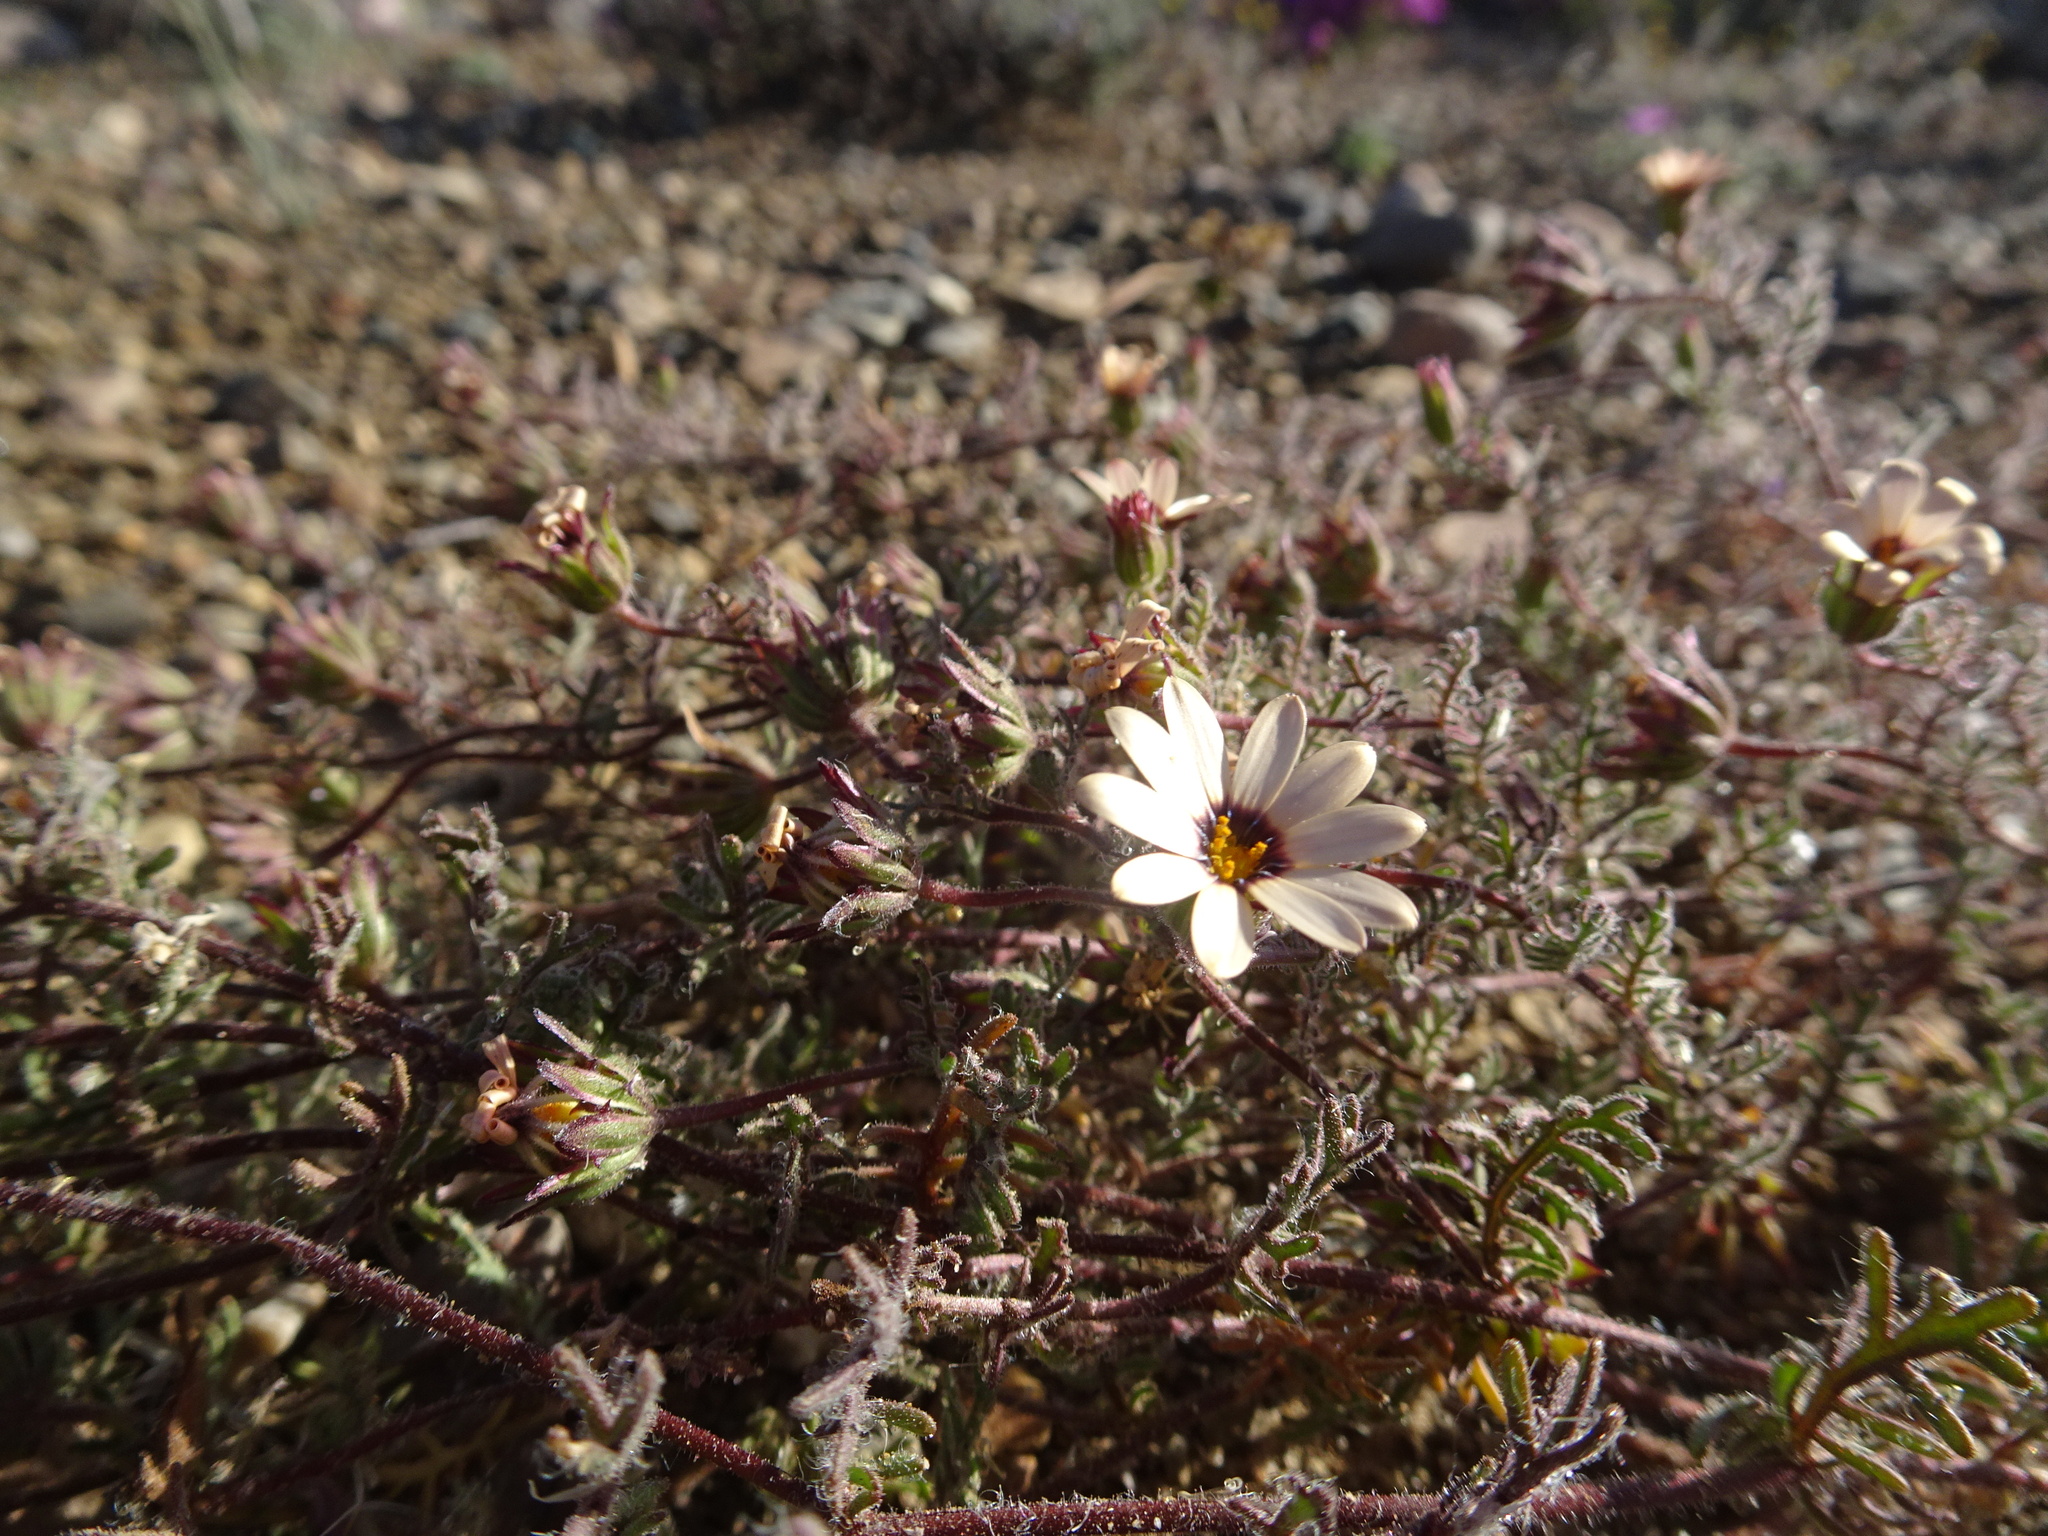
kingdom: Plantae
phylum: Tracheophyta
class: Magnoliopsida
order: Asterales
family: Asteraceae
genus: Dimorphotheca
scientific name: Dimorphotheca pinnata
